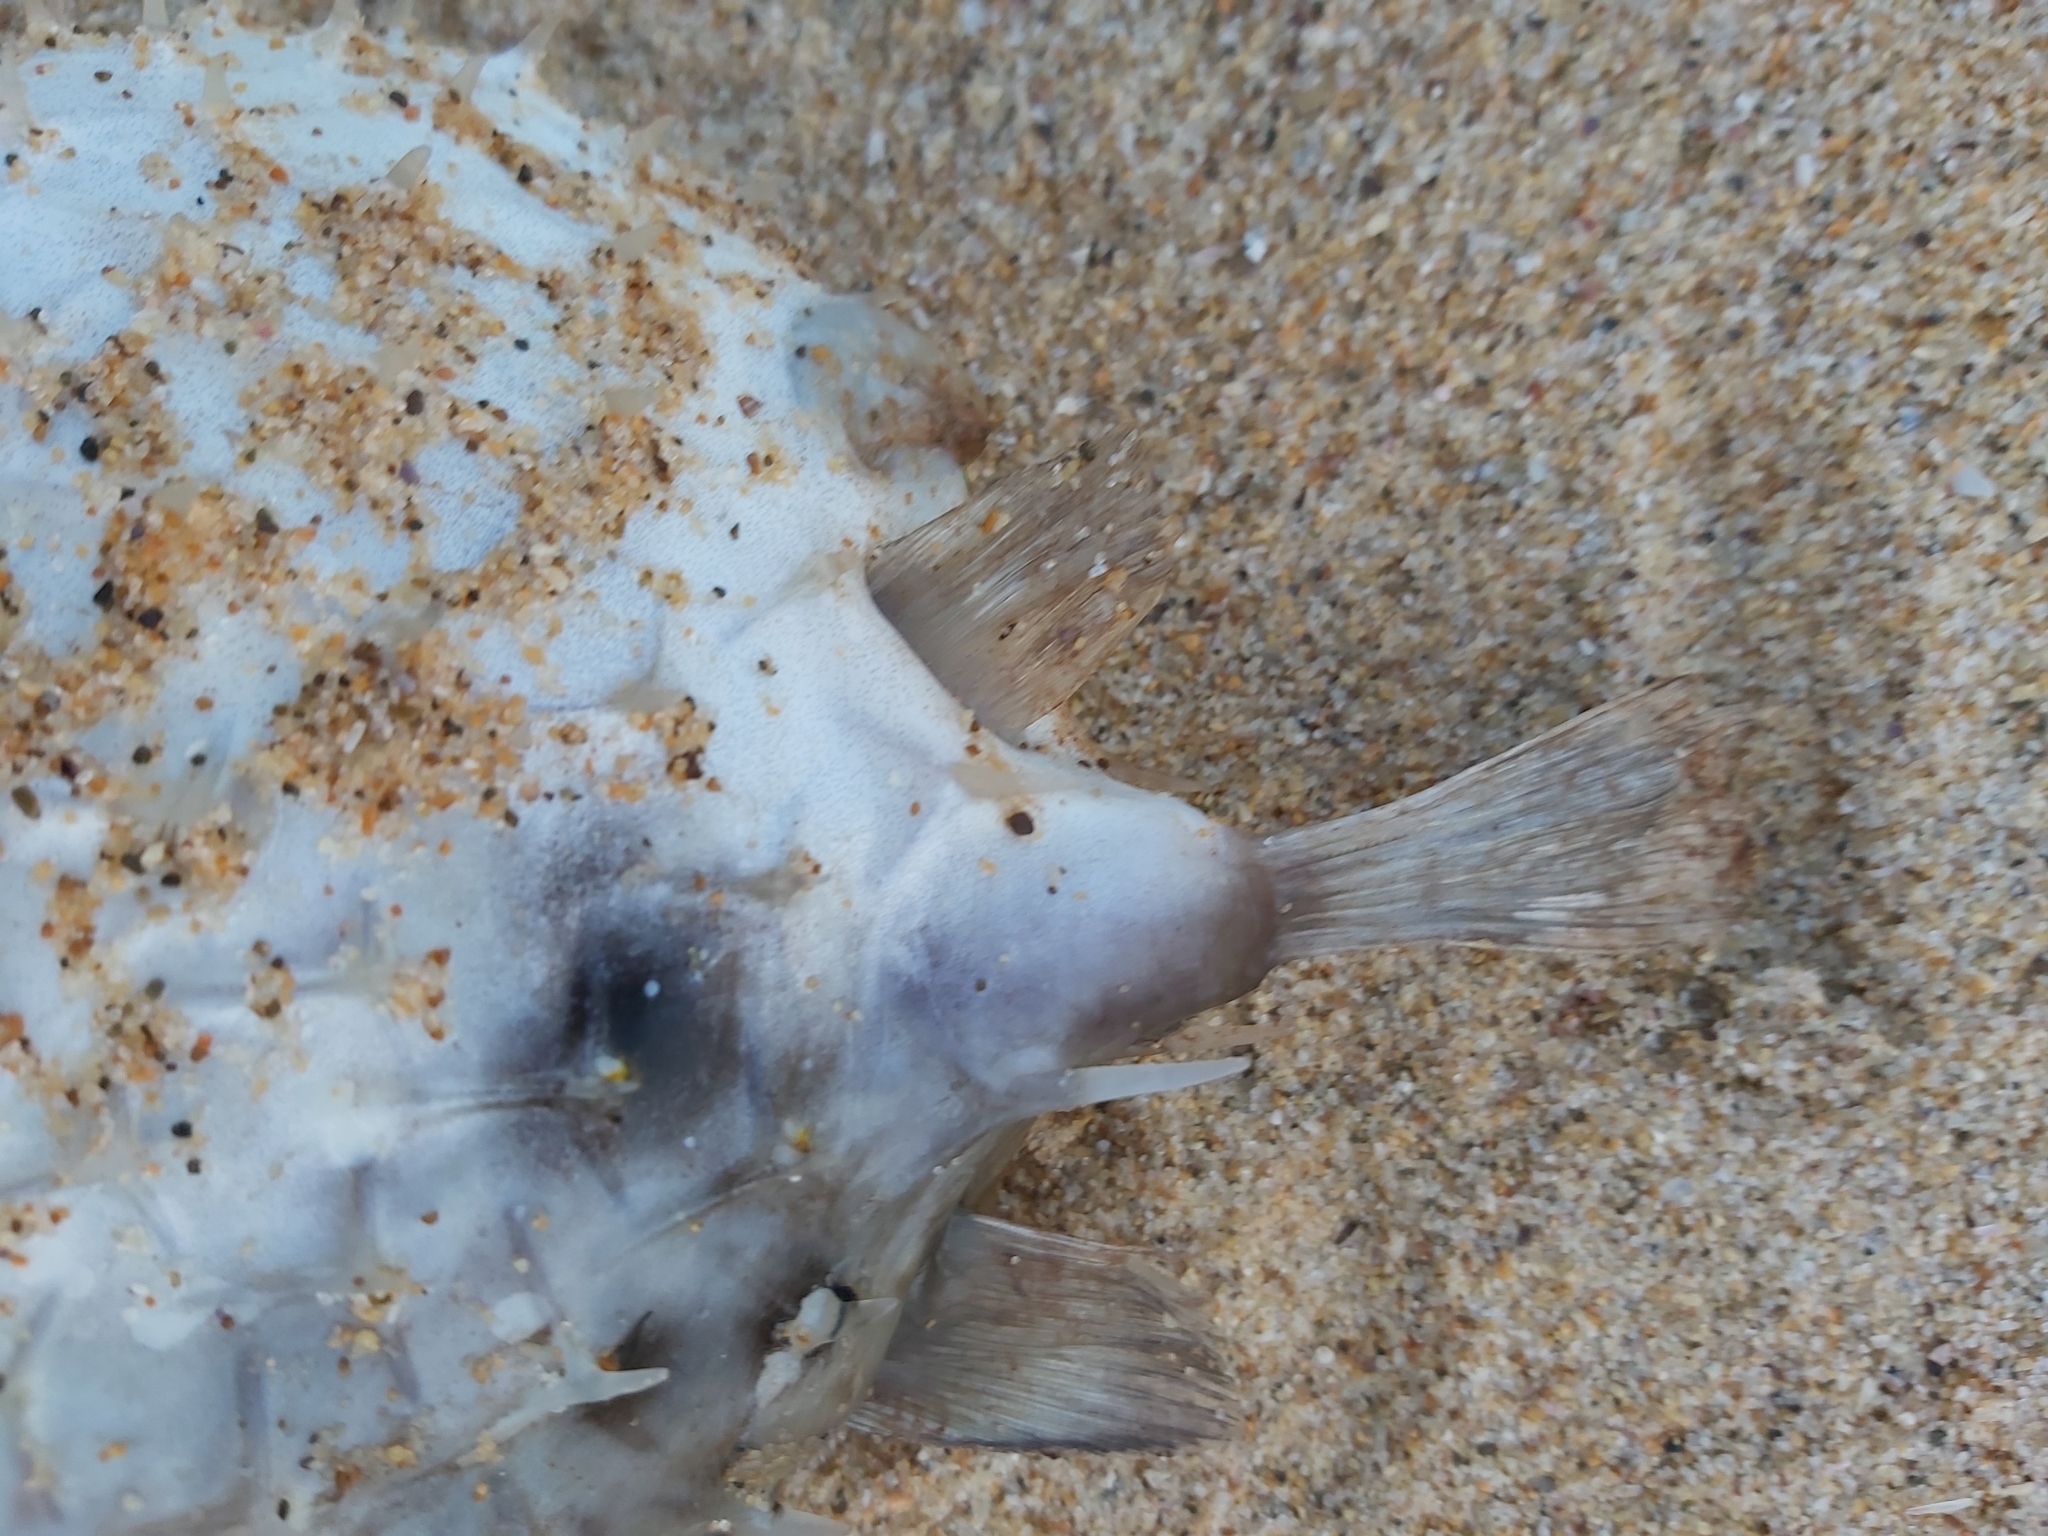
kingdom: Animalia
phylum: Chordata
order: Tetraodontiformes
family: Diodontidae
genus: Allomycterus
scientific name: Allomycterus pilatus
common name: No common name
